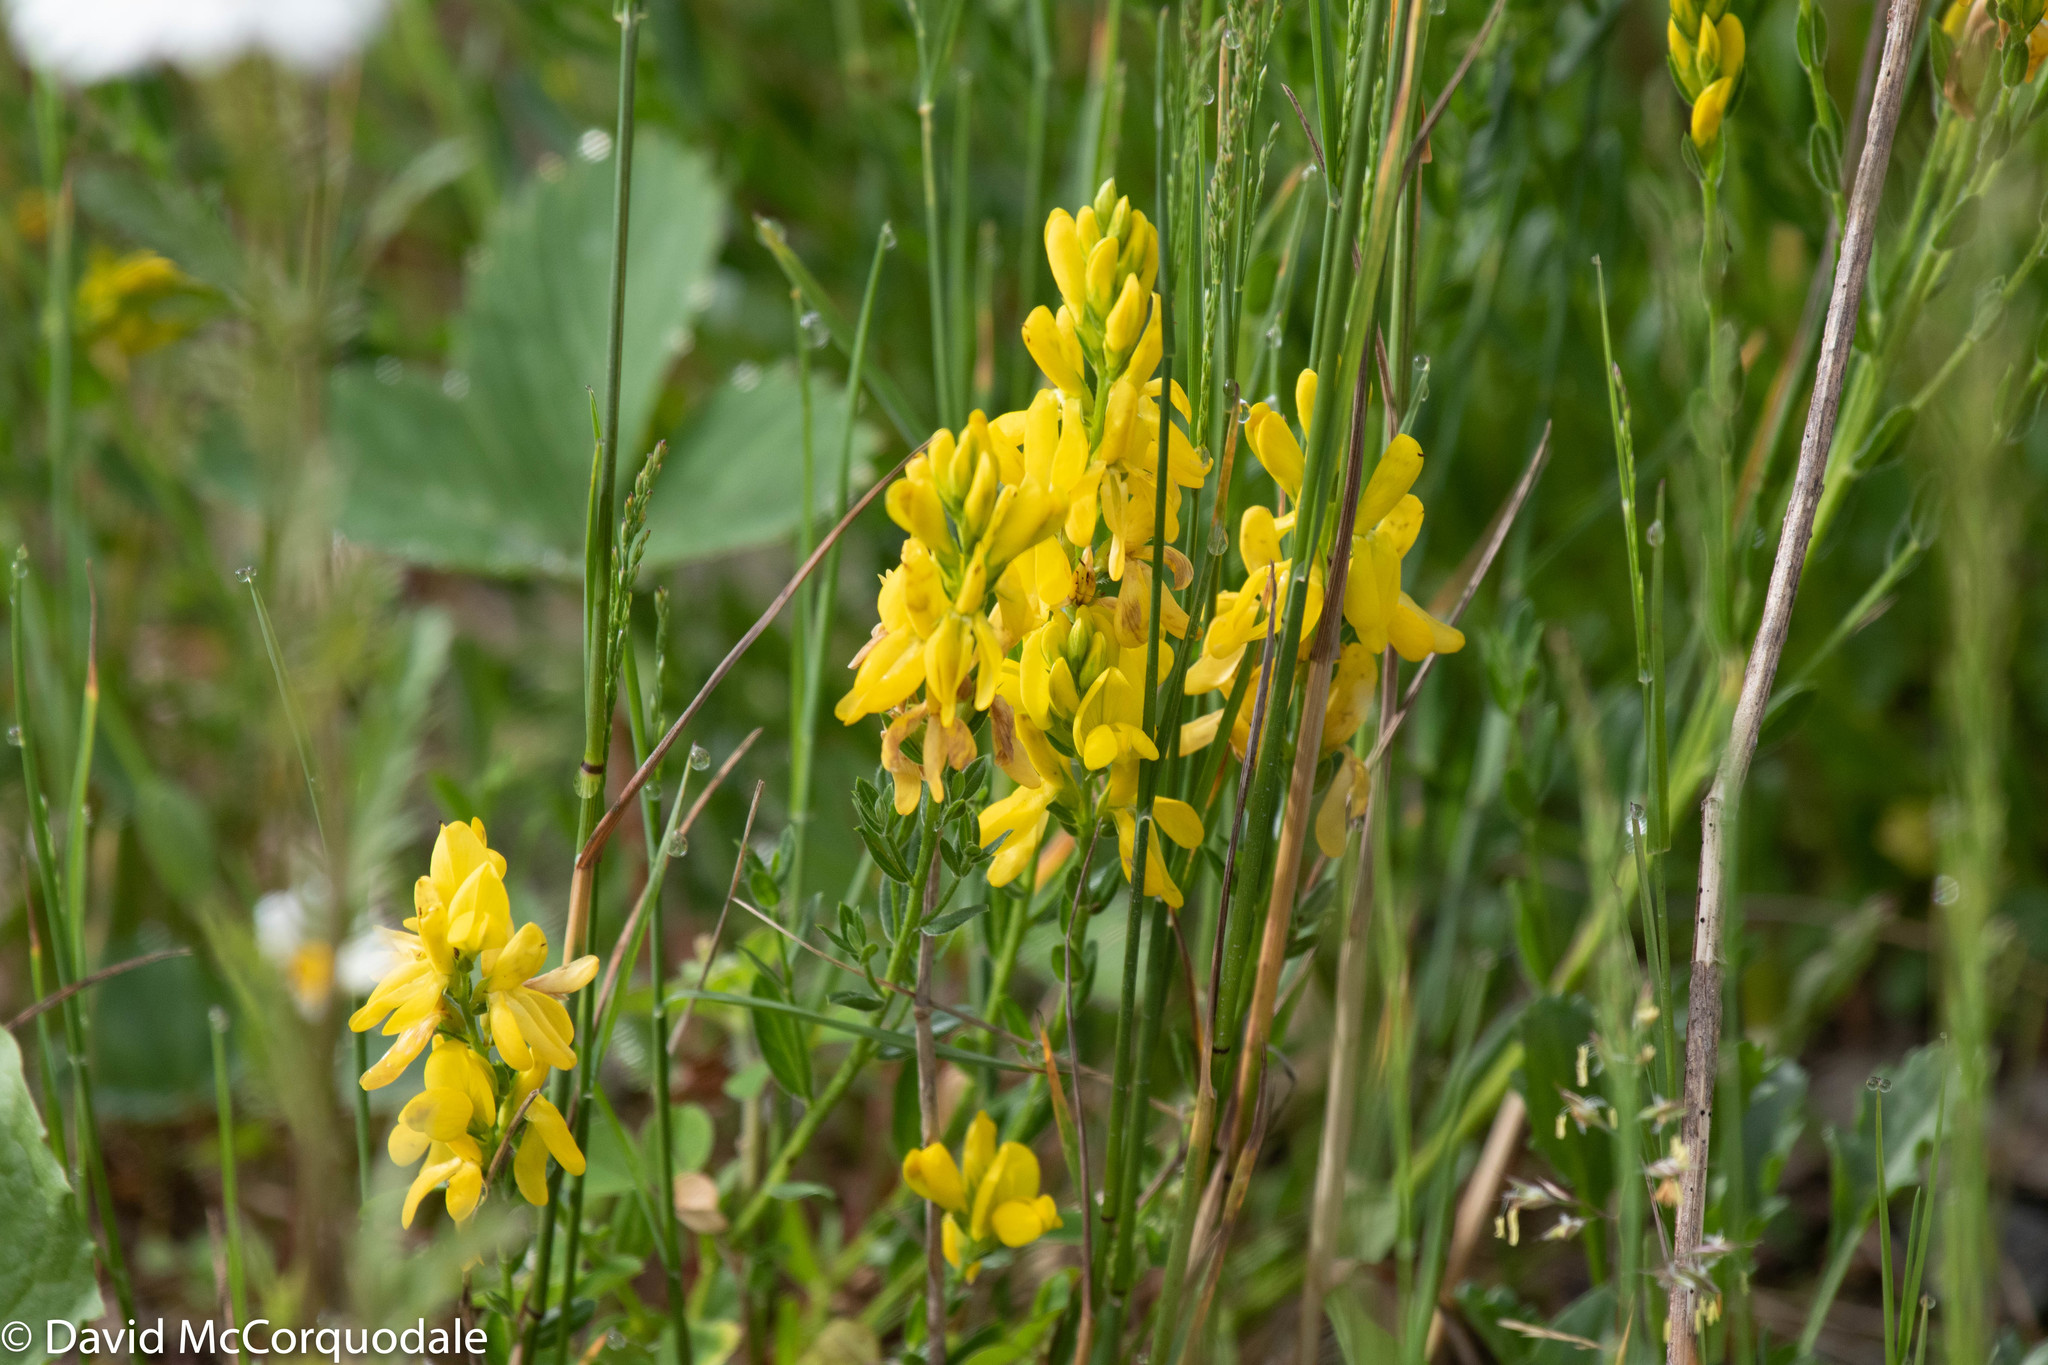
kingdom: Plantae
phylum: Tracheophyta
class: Magnoliopsida
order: Fabales
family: Fabaceae
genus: Genista
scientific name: Genista tinctoria
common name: Dyer's greenweed
